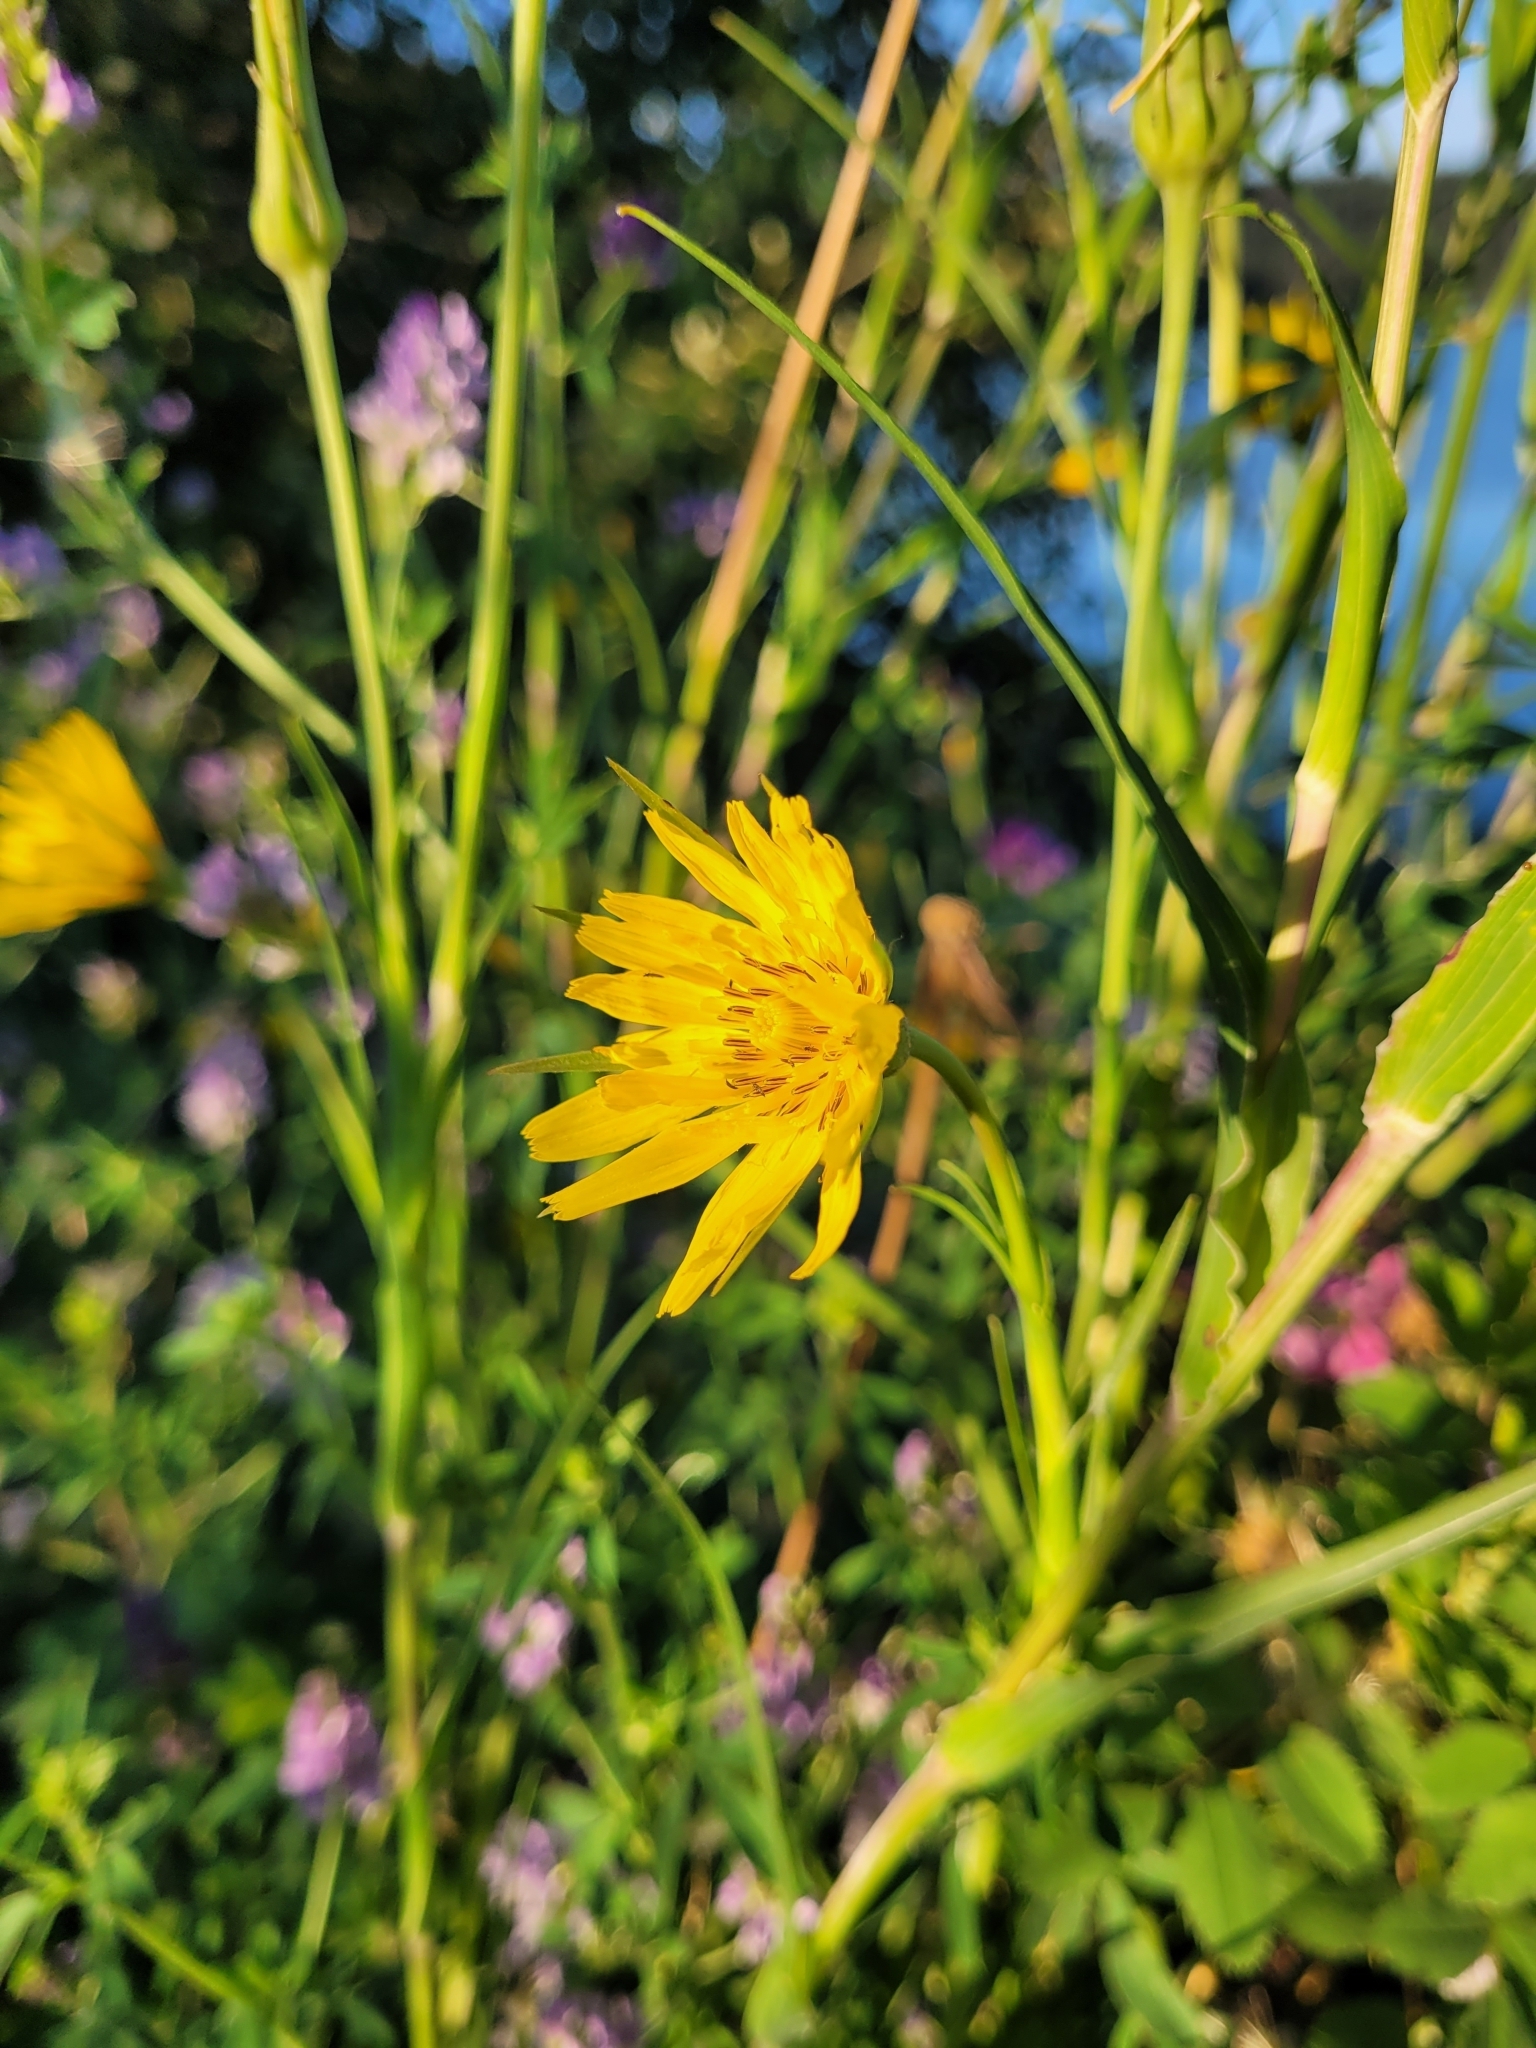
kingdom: Plantae
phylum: Tracheophyta
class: Magnoliopsida
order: Asterales
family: Asteraceae
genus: Tragopogon
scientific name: Tragopogon pratensis
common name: Goat's-beard
